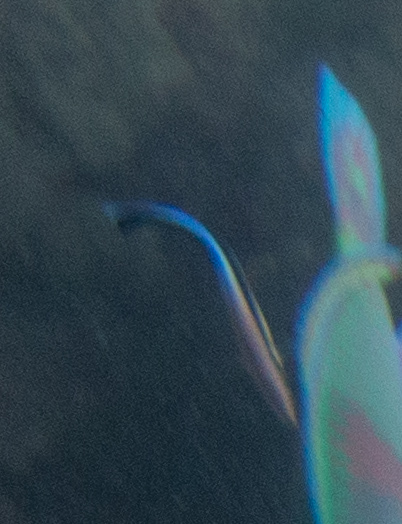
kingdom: Animalia
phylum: Chordata
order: Perciformes
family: Labridae
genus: Labroides
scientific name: Labroides dimidiatus
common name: Blue diesel wrasse
